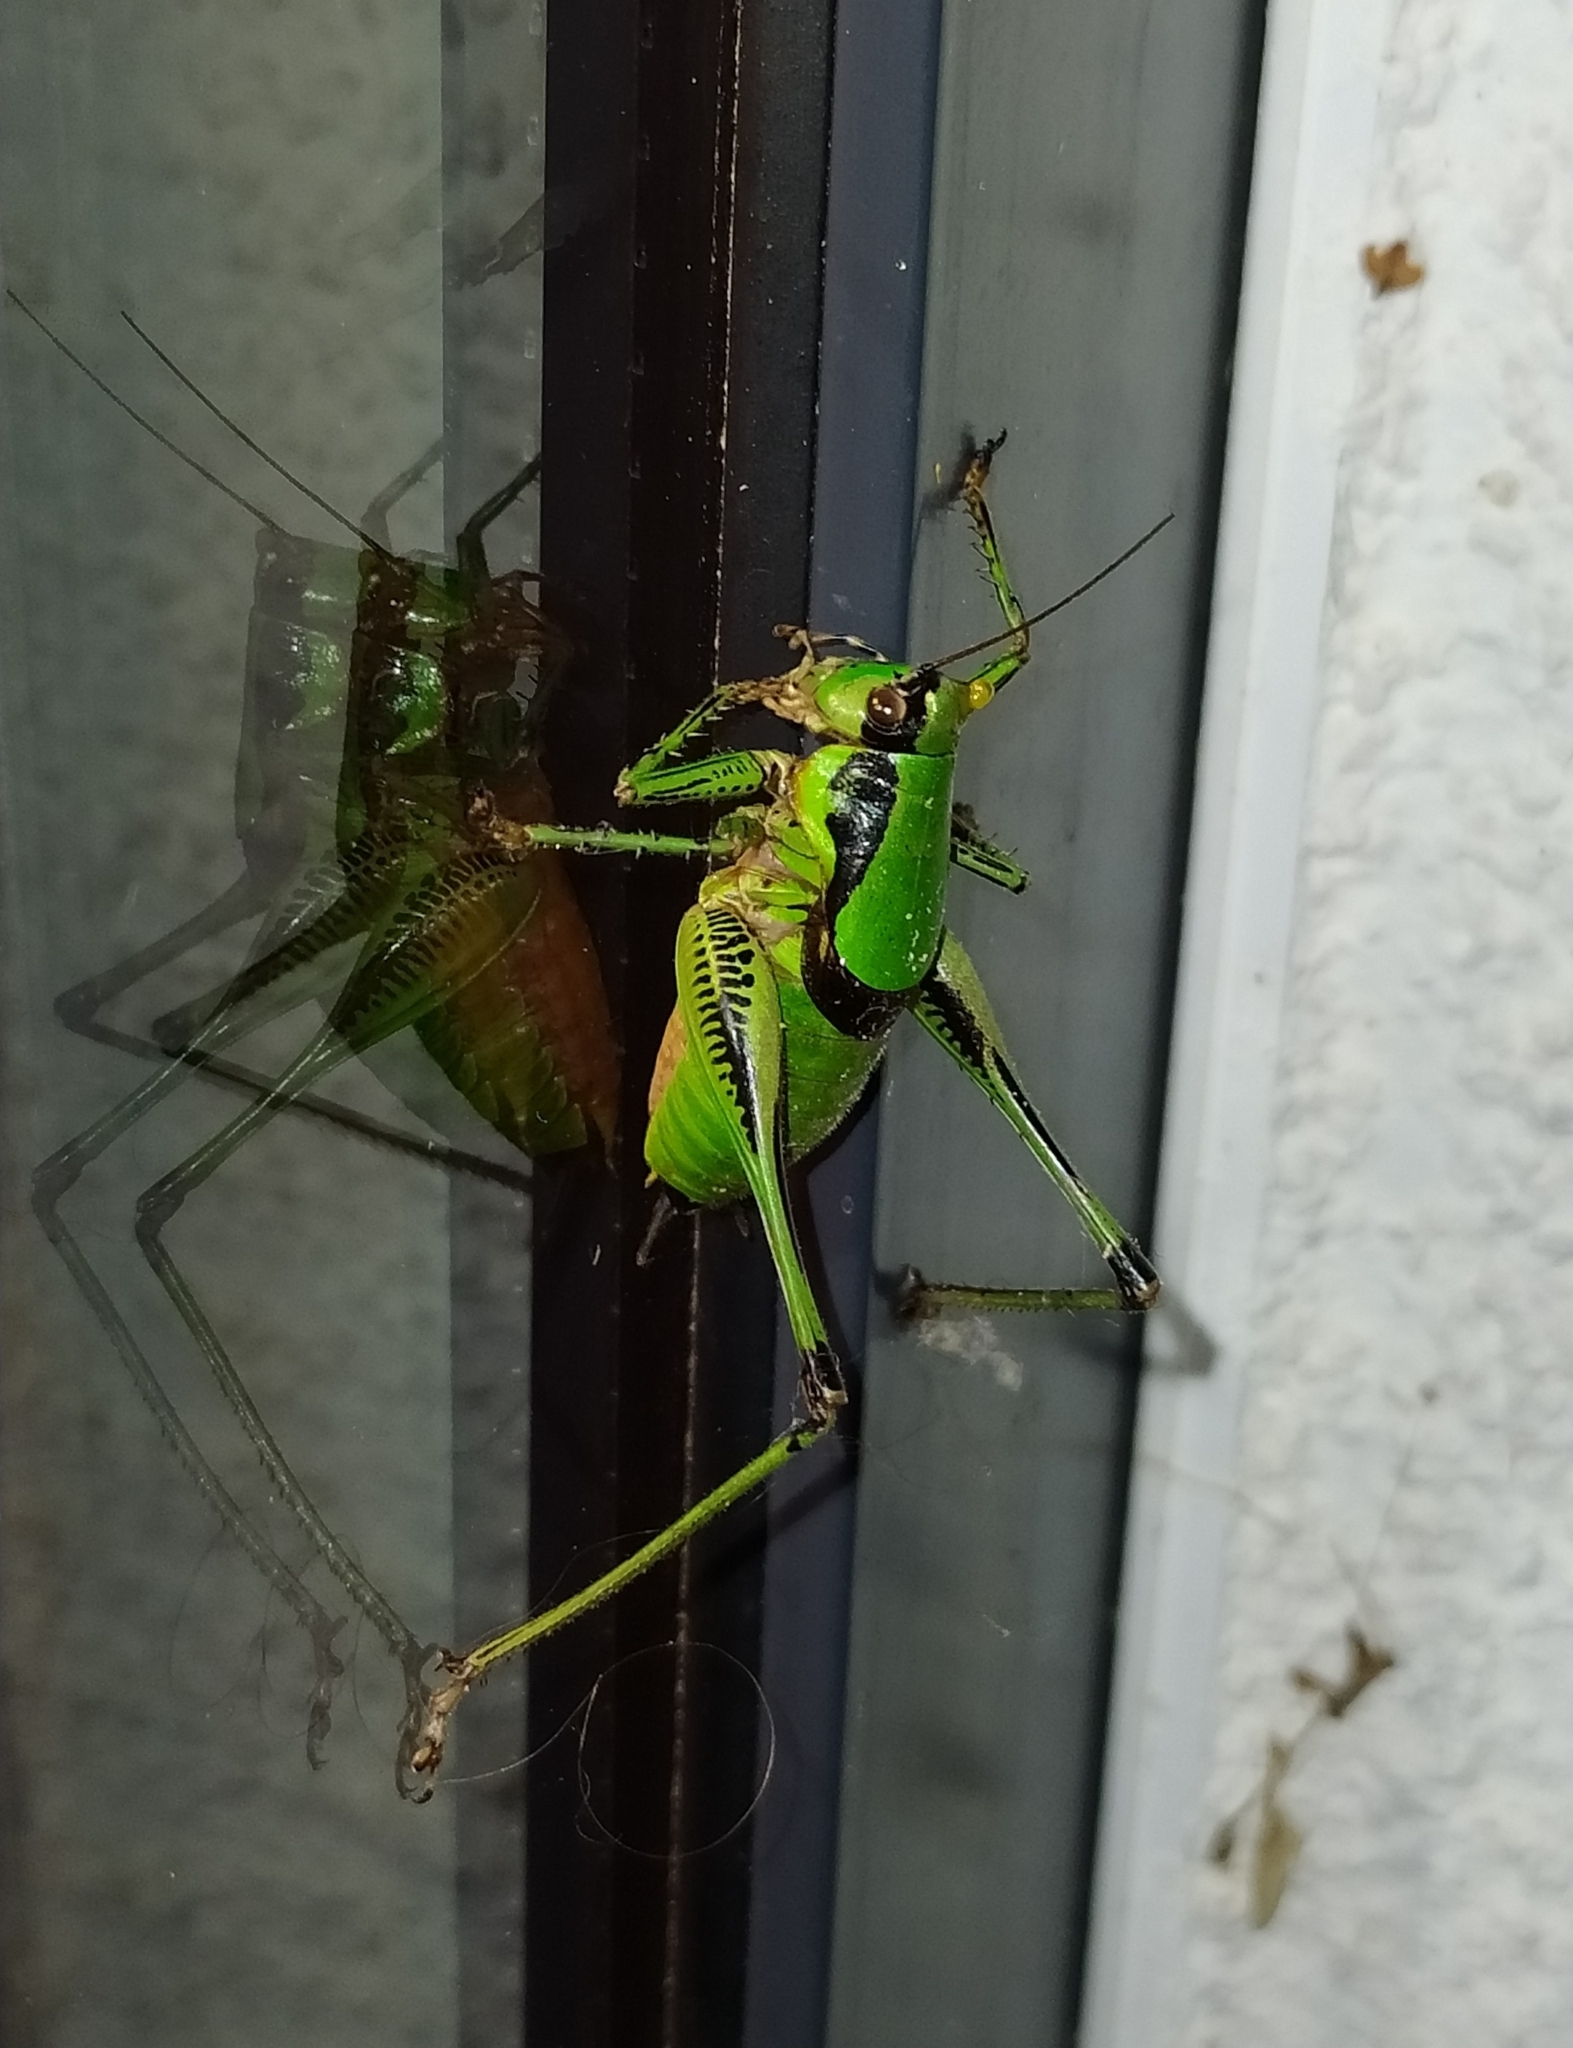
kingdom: Animalia
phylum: Arthropoda
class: Insecta
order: Orthoptera
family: Tettigoniidae
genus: Eupholidoptera
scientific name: Eupholidoptera schmidti
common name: Schmidt's marbled bush-cricket
